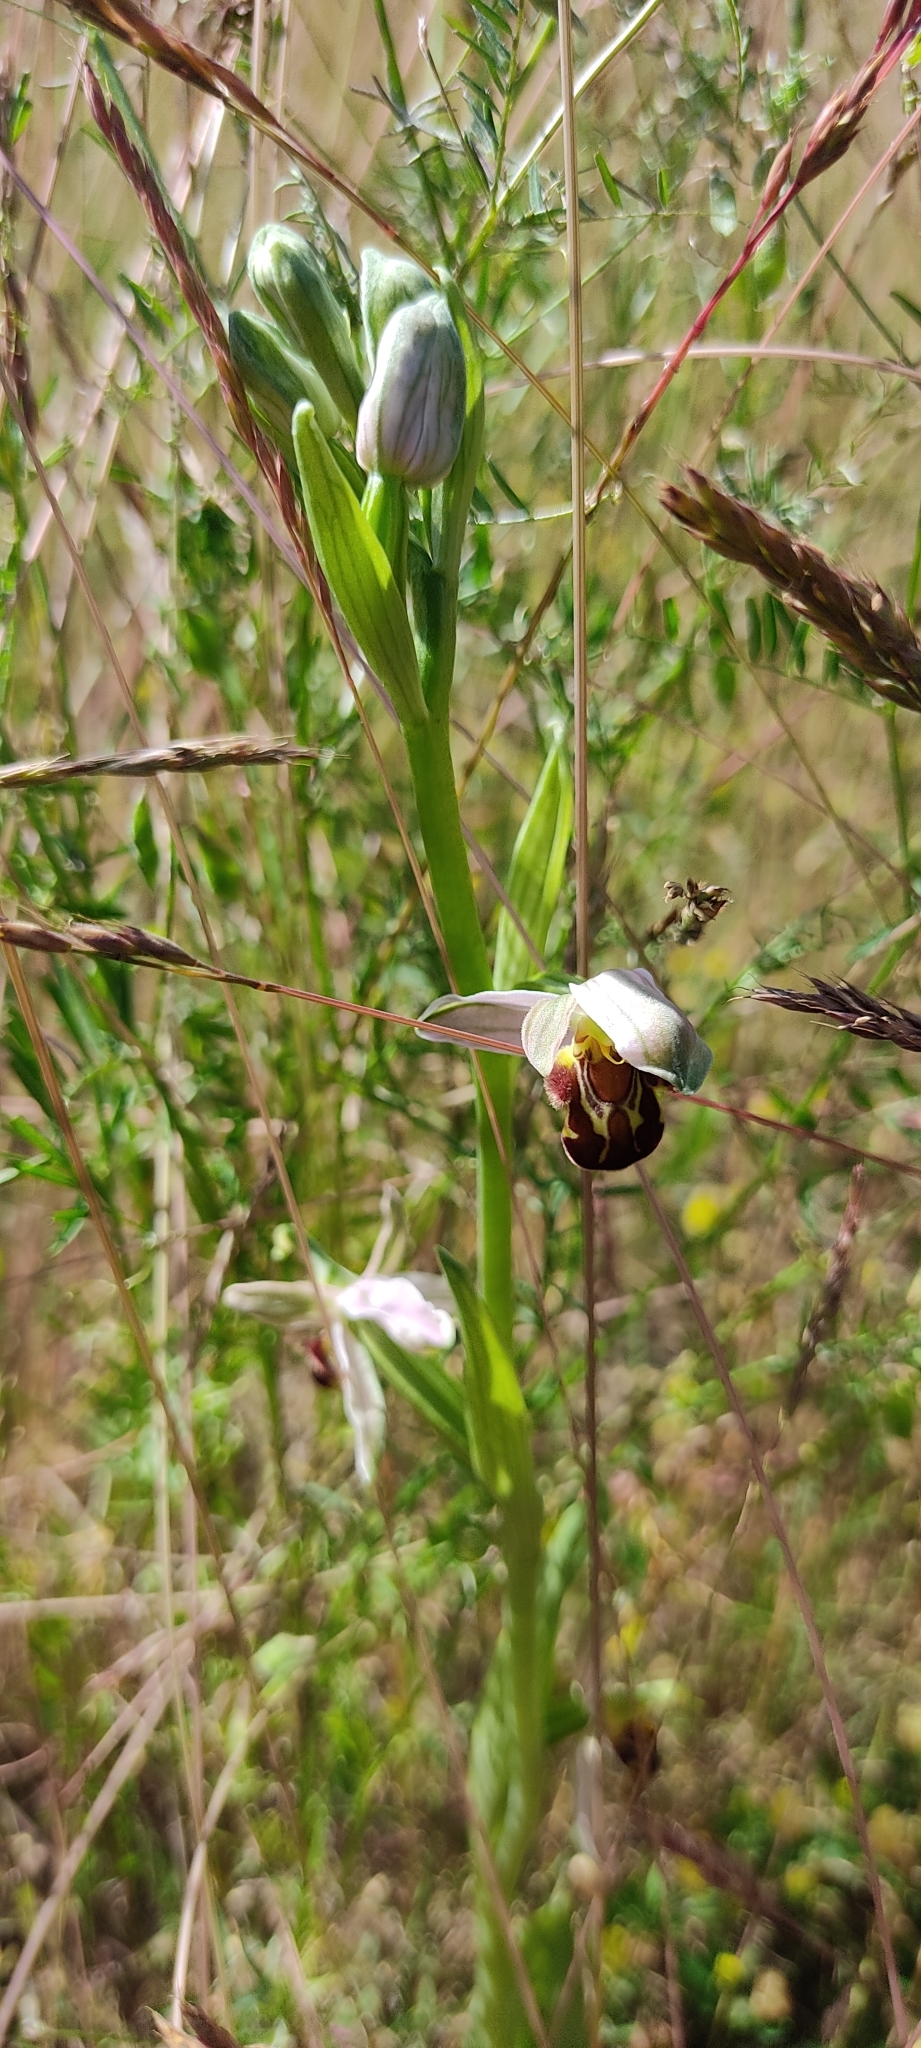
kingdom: Plantae
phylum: Tracheophyta
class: Liliopsida
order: Asparagales
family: Orchidaceae
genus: Ophrys
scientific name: Ophrys apifera
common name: Bee orchid
